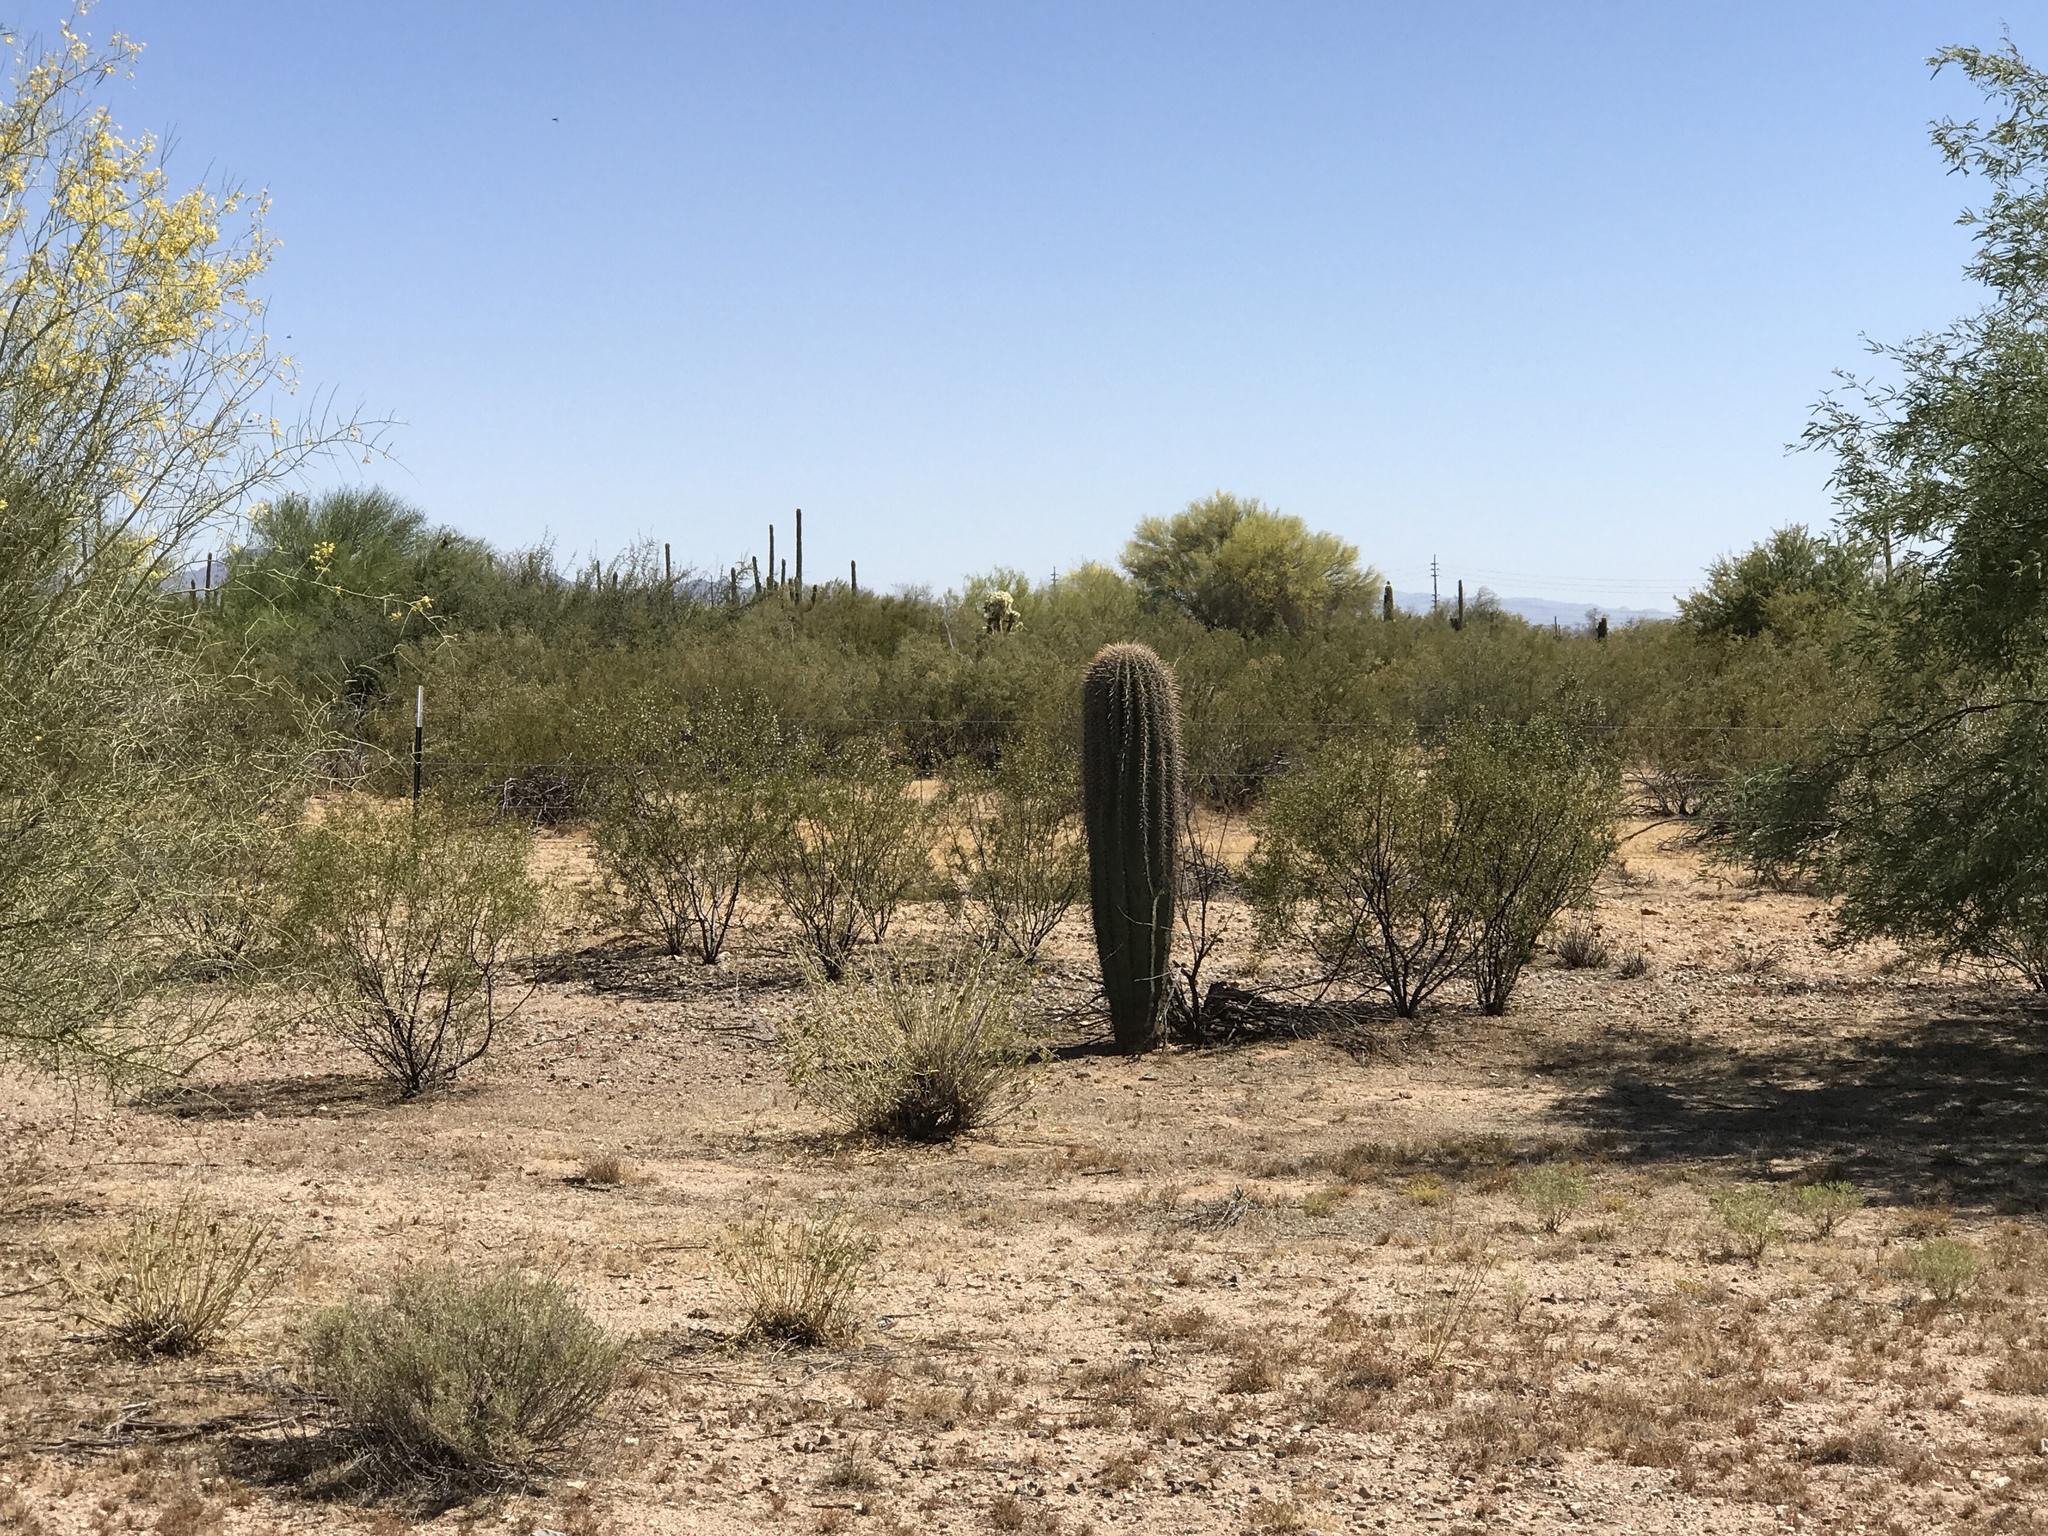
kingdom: Plantae
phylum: Tracheophyta
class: Magnoliopsida
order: Caryophyllales
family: Cactaceae
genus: Carnegiea
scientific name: Carnegiea gigantea
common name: Saguaro
